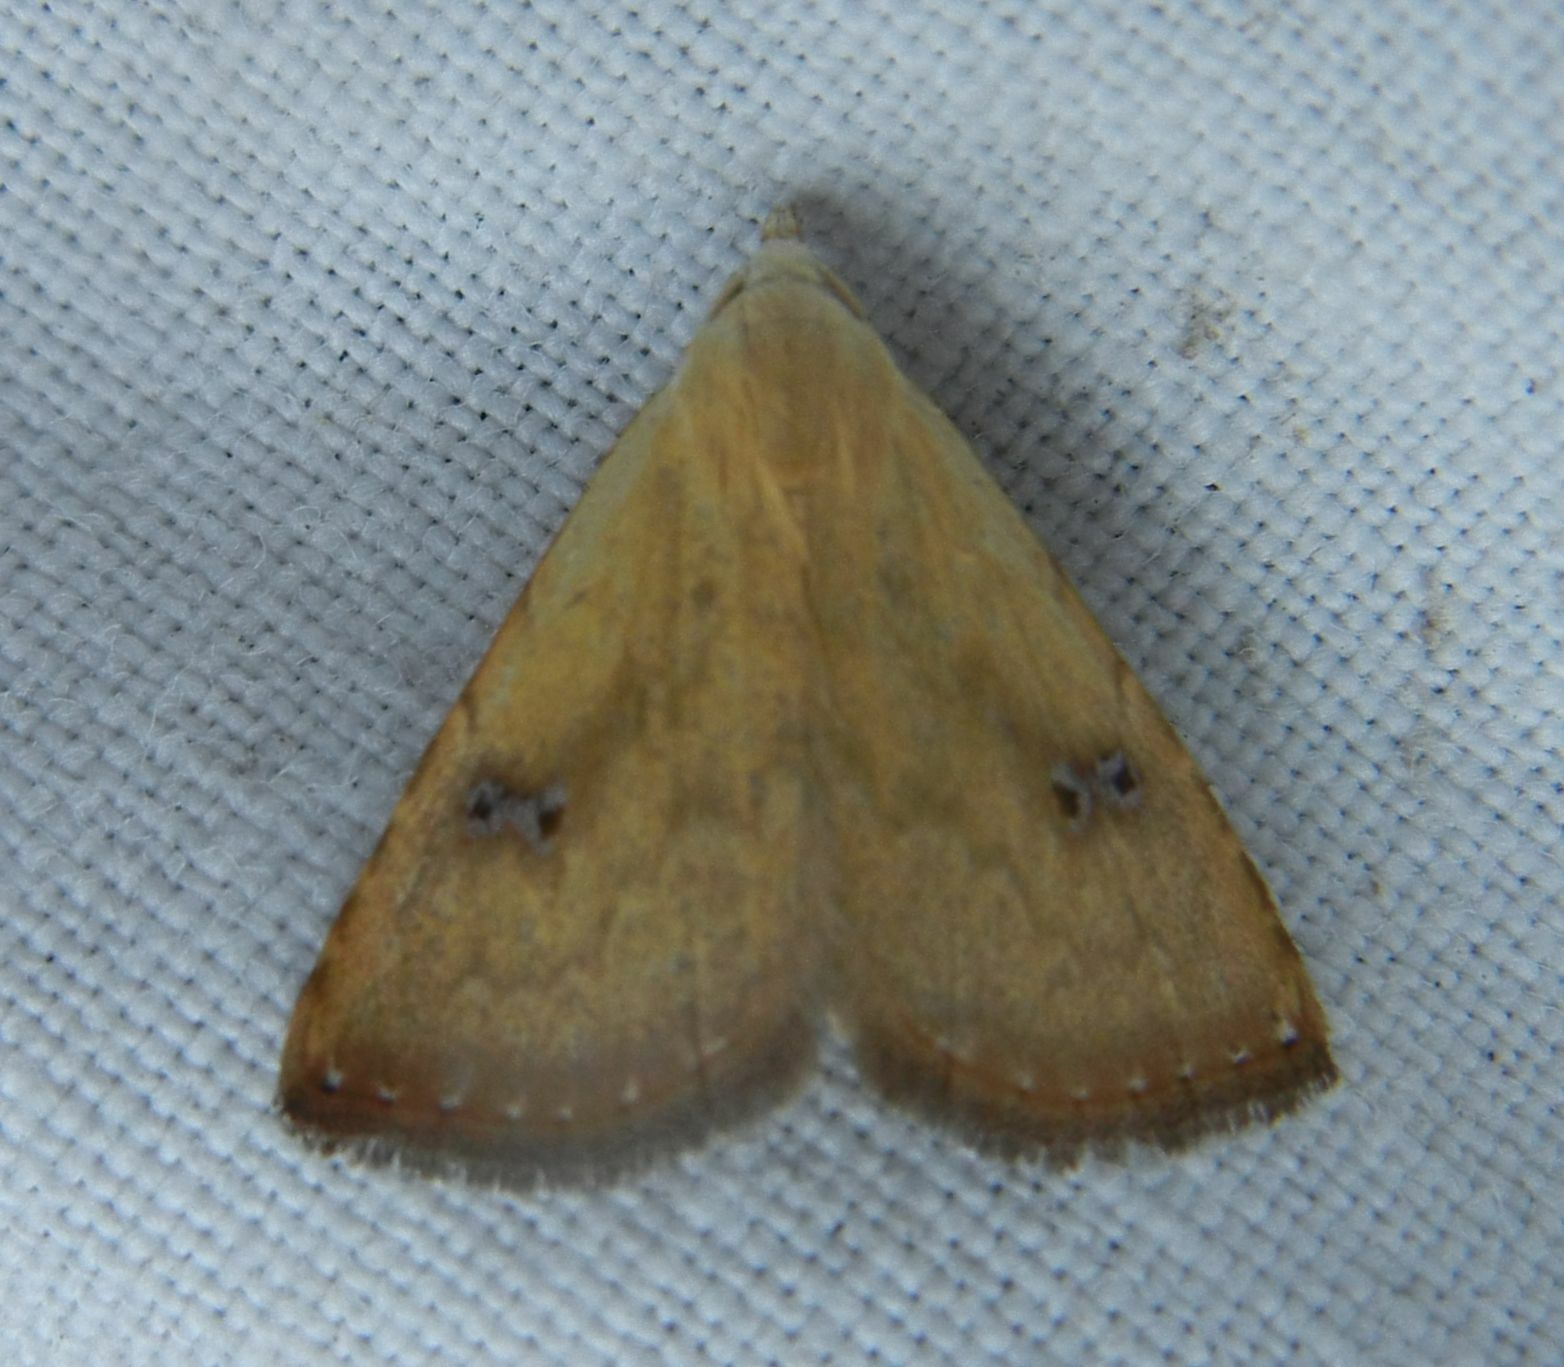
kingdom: Animalia
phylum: Arthropoda
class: Insecta
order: Lepidoptera
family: Erebidae
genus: Rivula
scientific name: Rivula sericealis
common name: Straw dot
